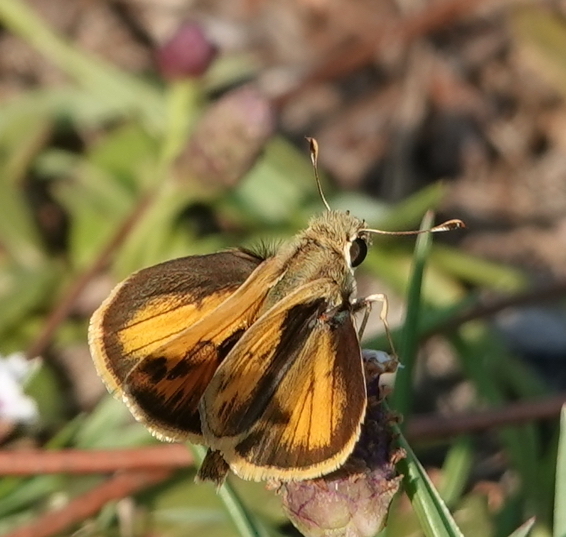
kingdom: Animalia
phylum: Arthropoda
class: Insecta
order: Lepidoptera
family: Hesperiidae
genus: Polites
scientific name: Polites vibex
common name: Whirlabout
